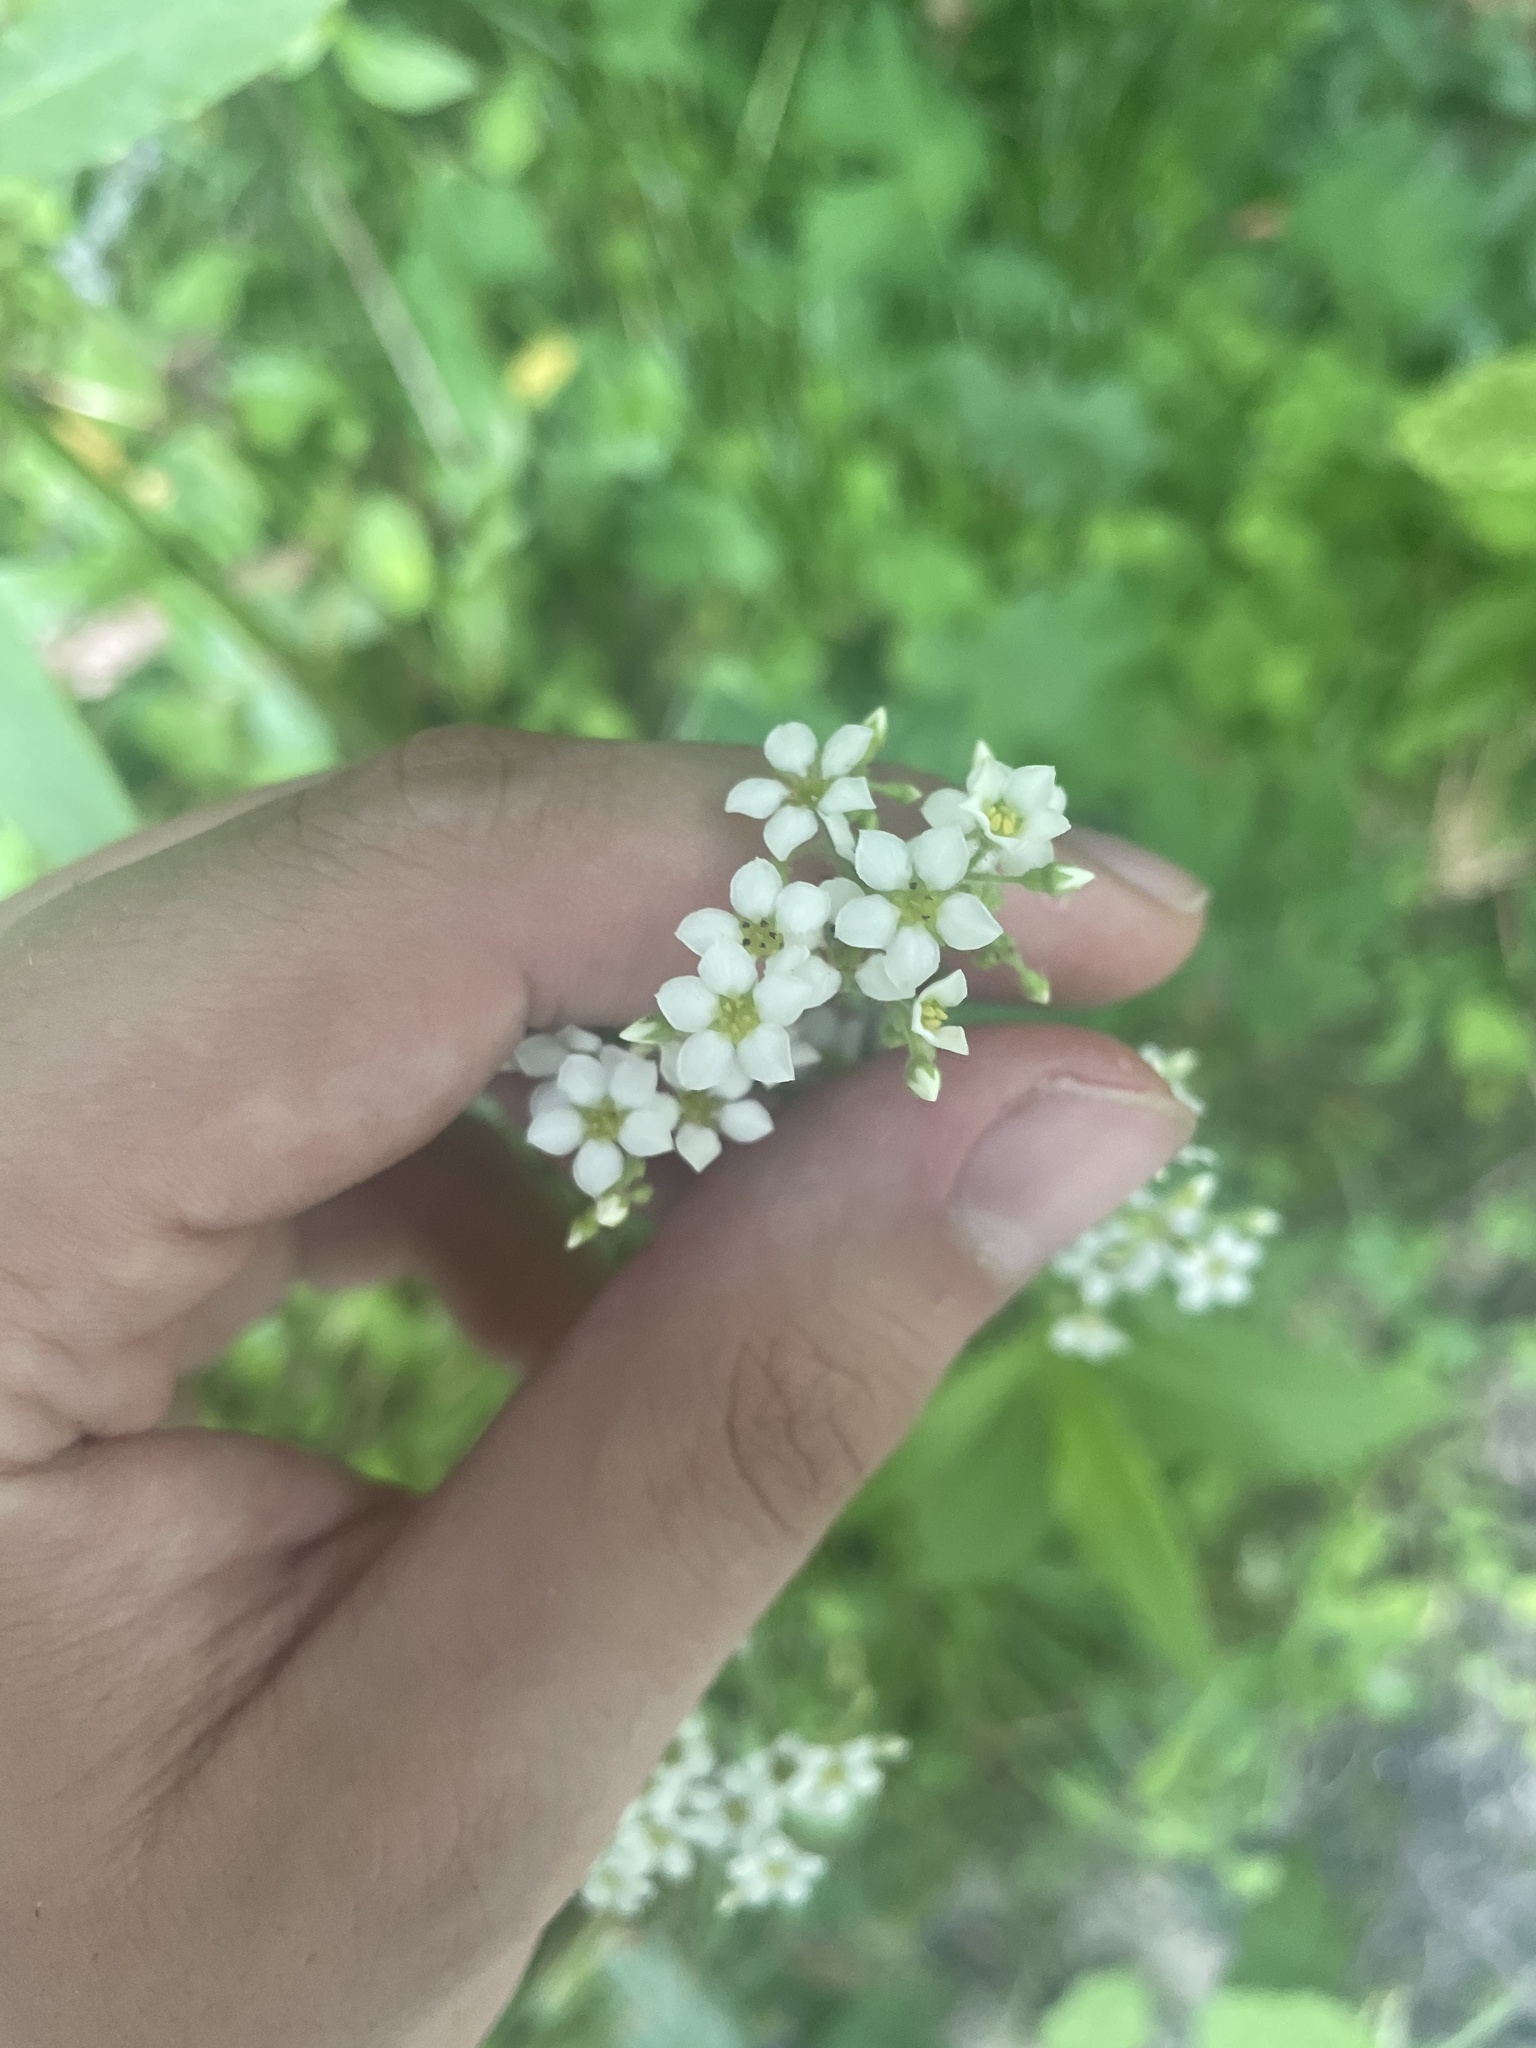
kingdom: Plantae
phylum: Tracheophyta
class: Magnoliopsida
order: Saxifragales
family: Saxifragaceae
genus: Boykinia
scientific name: Boykinia aconitifolia
